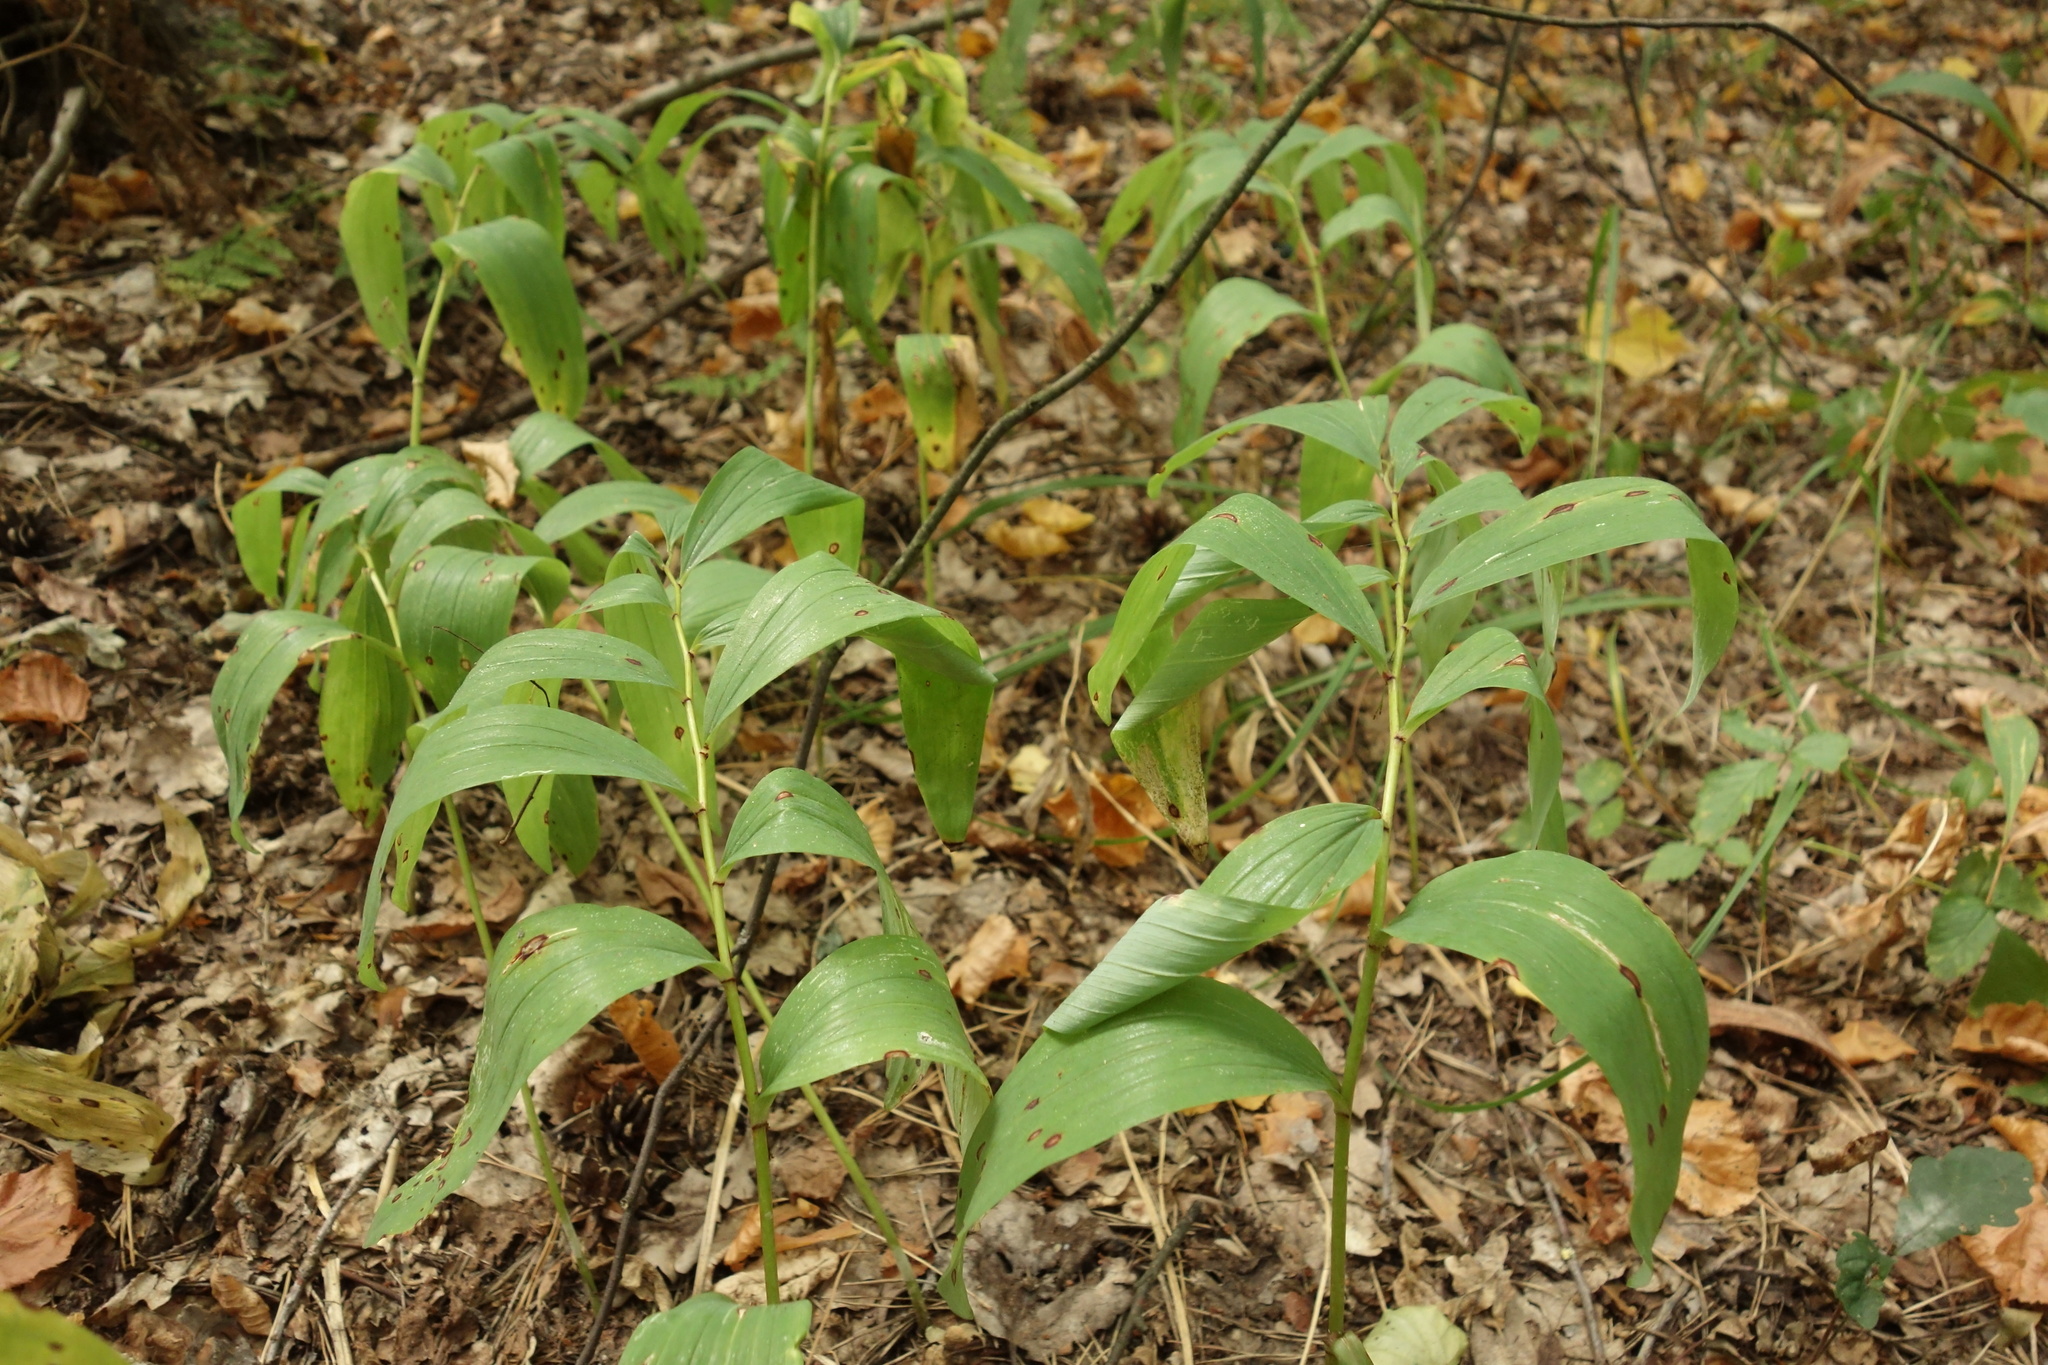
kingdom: Plantae
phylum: Tracheophyta
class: Liliopsida
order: Asparagales
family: Asparagaceae
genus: Polygonatum
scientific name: Polygonatum multiflorum
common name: Solomon's-seal
